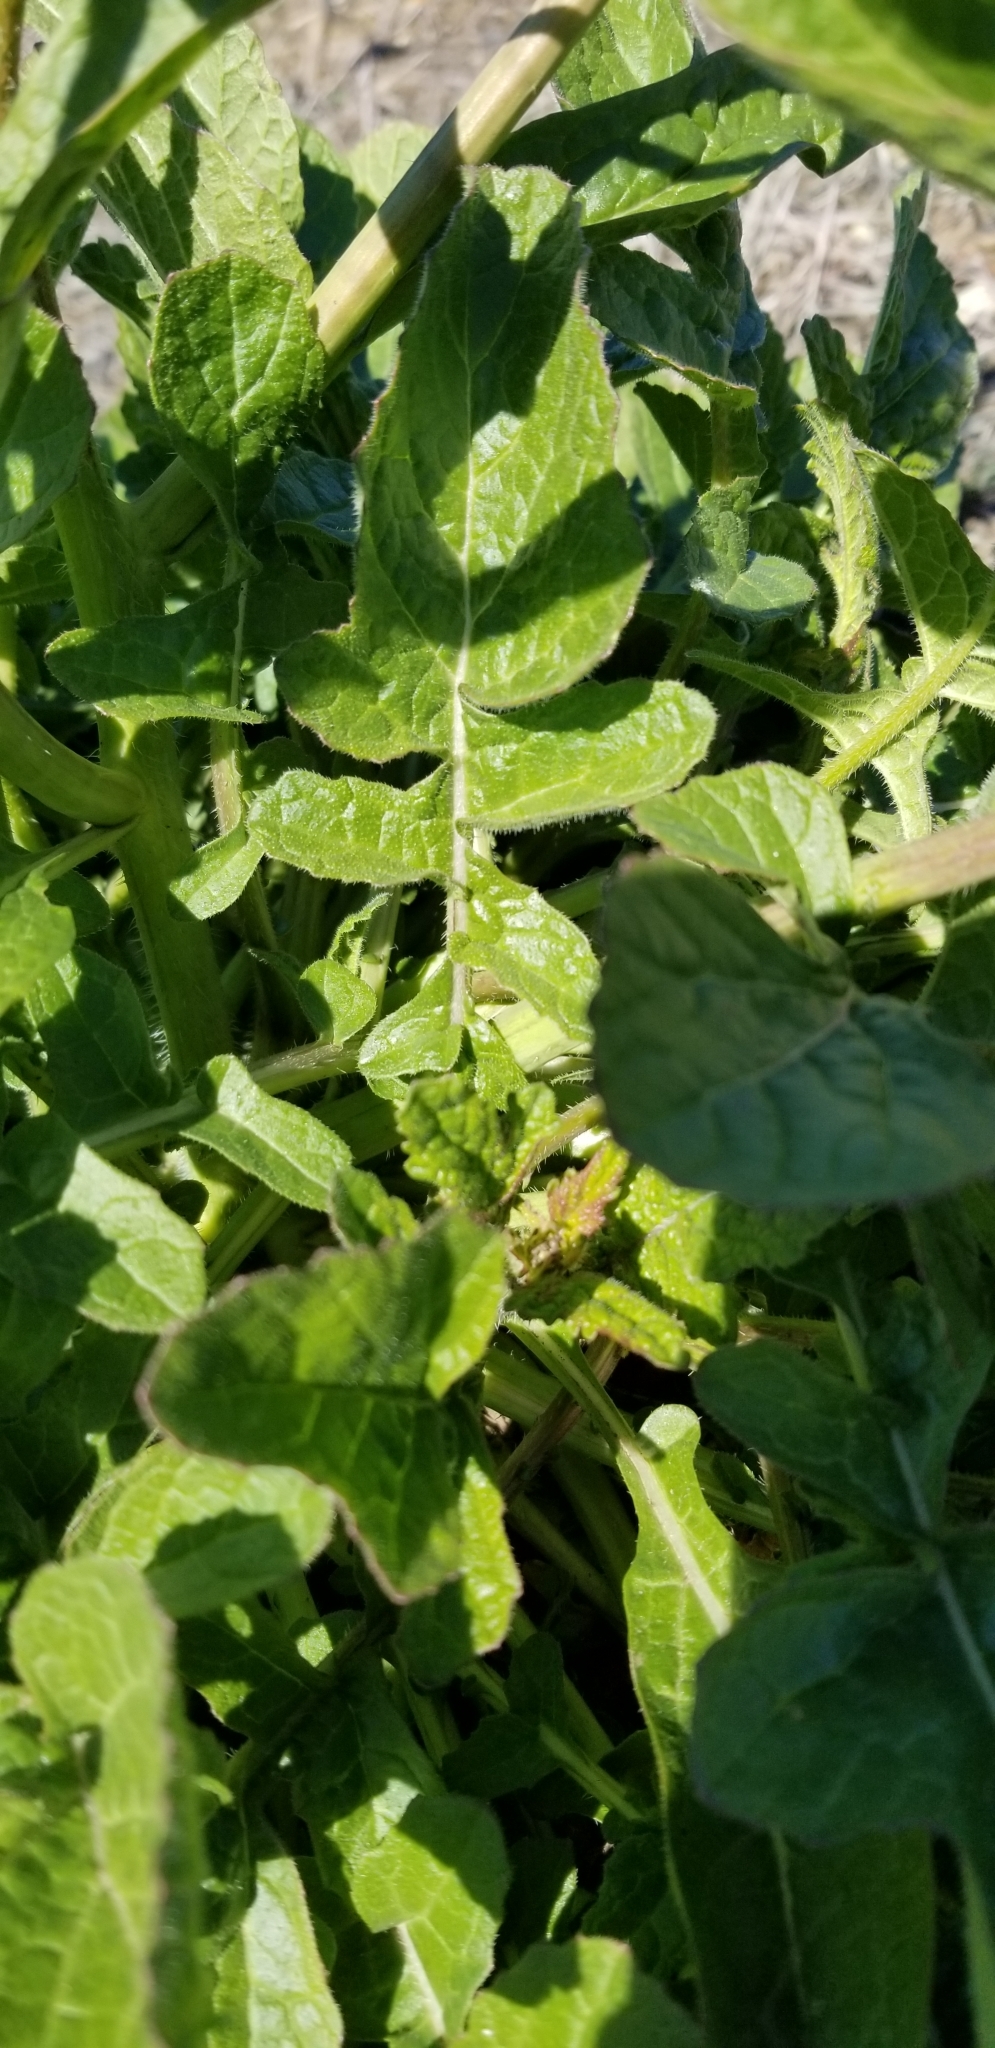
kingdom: Plantae
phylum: Tracheophyta
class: Magnoliopsida
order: Brassicales
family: Brassicaceae
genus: Rapistrum
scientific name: Rapistrum rugosum
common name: Annual bastardcabbage
